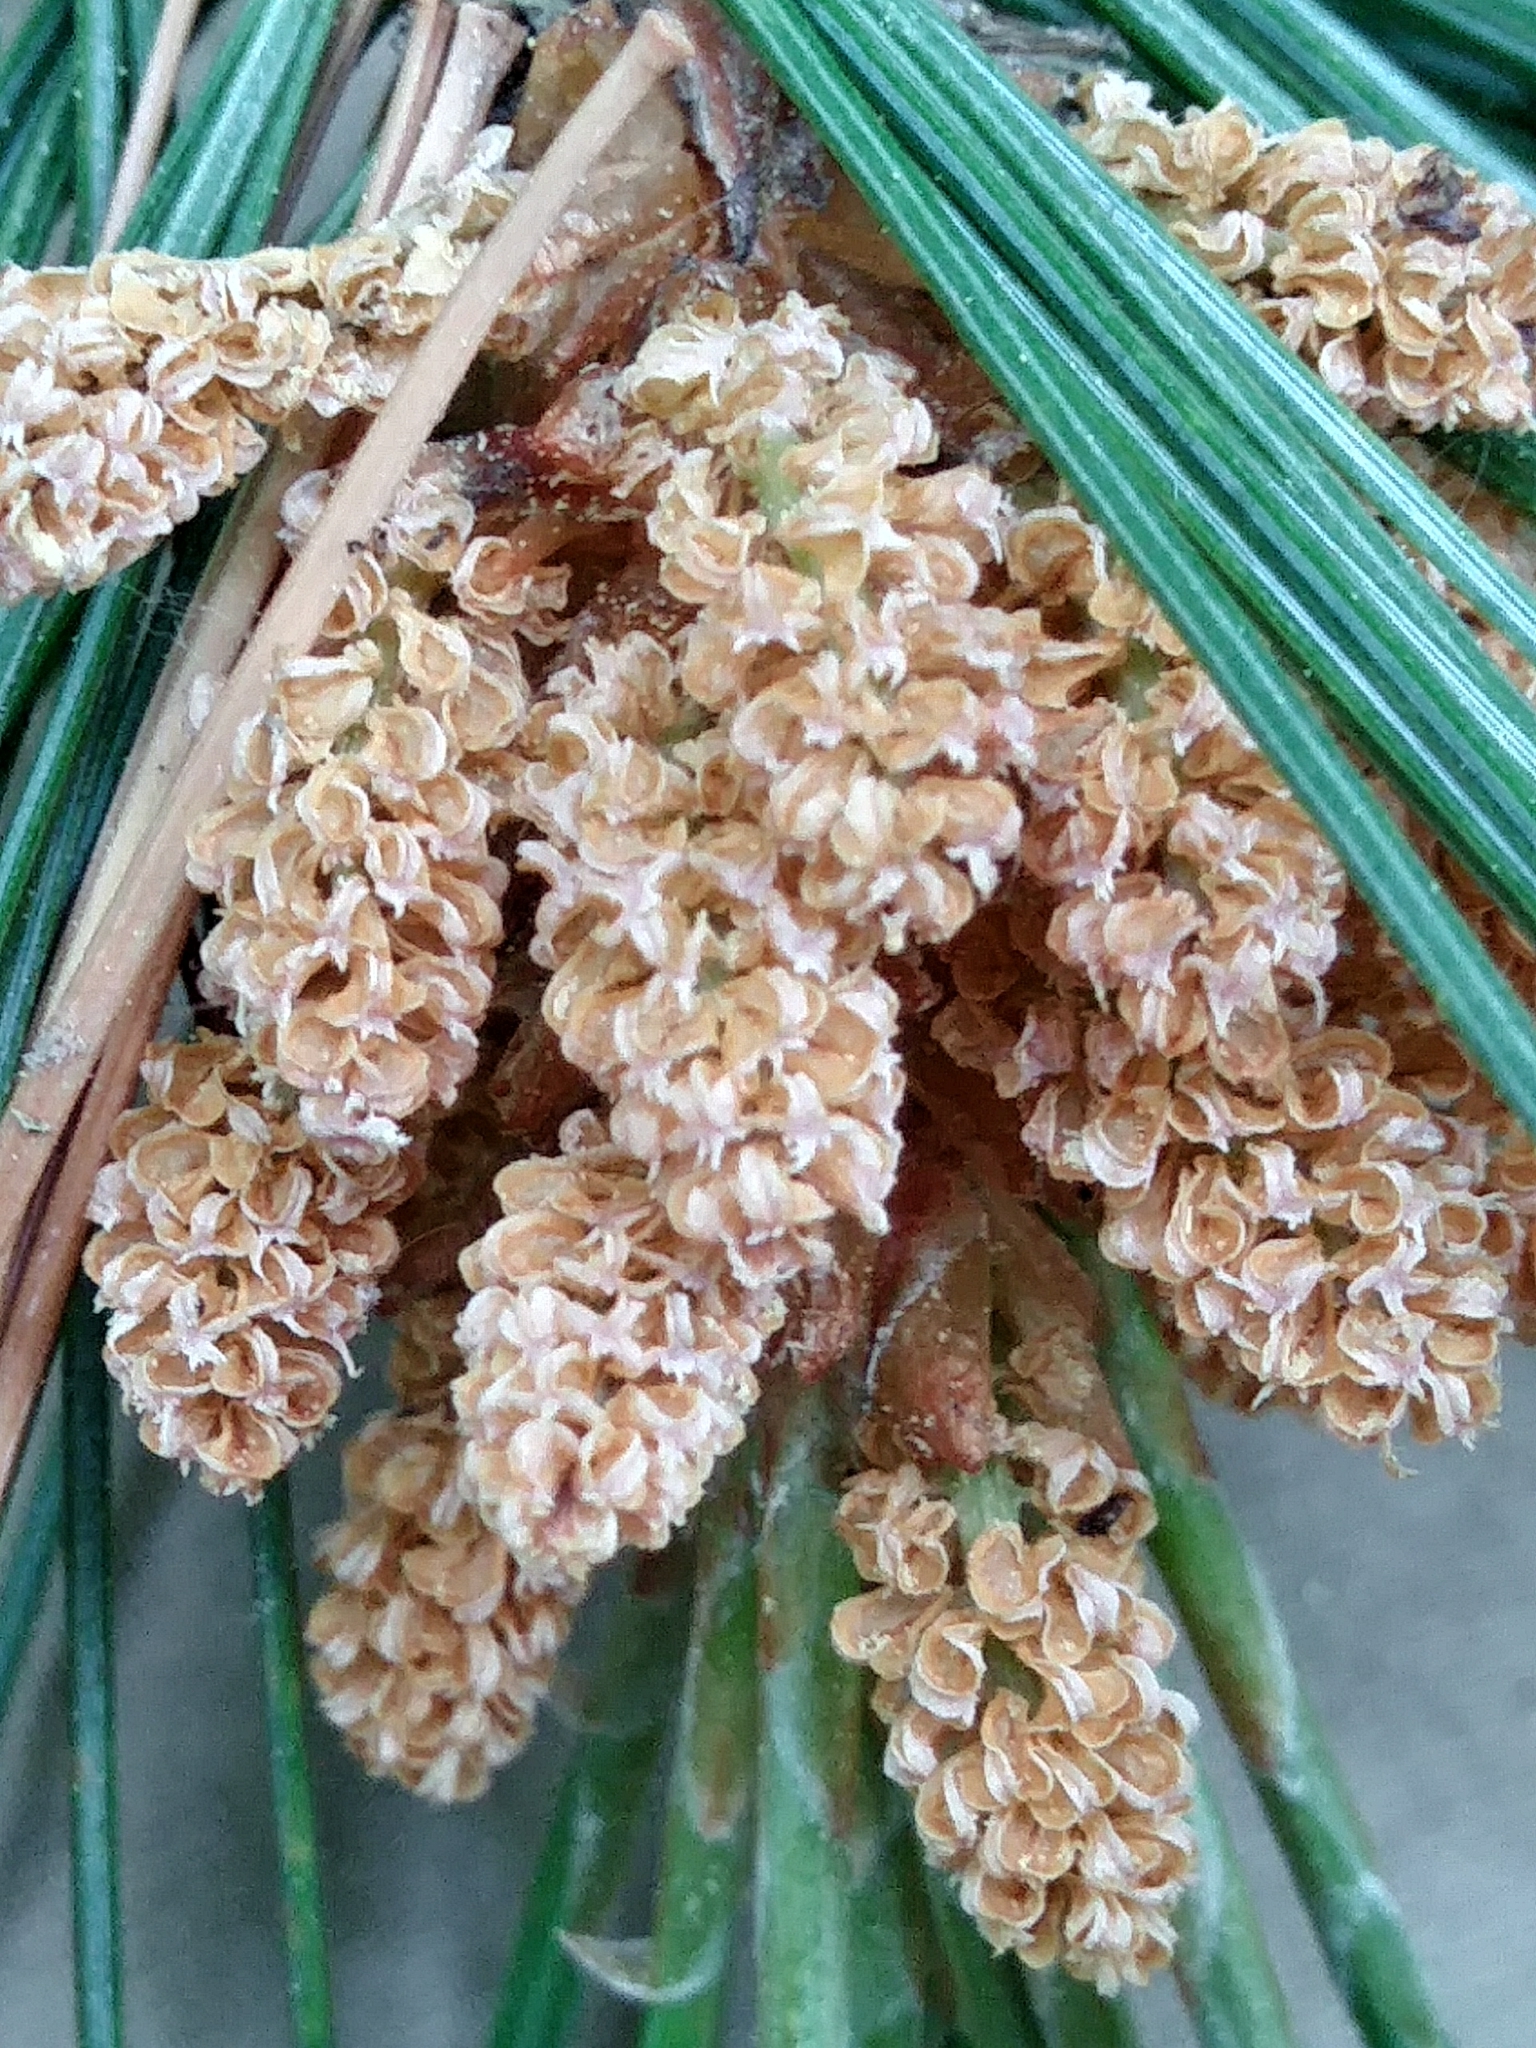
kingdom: Plantae
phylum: Tracheophyta
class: Pinopsida
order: Pinales
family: Pinaceae
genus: Pinus
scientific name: Pinus strobus
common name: Weymouth pine
